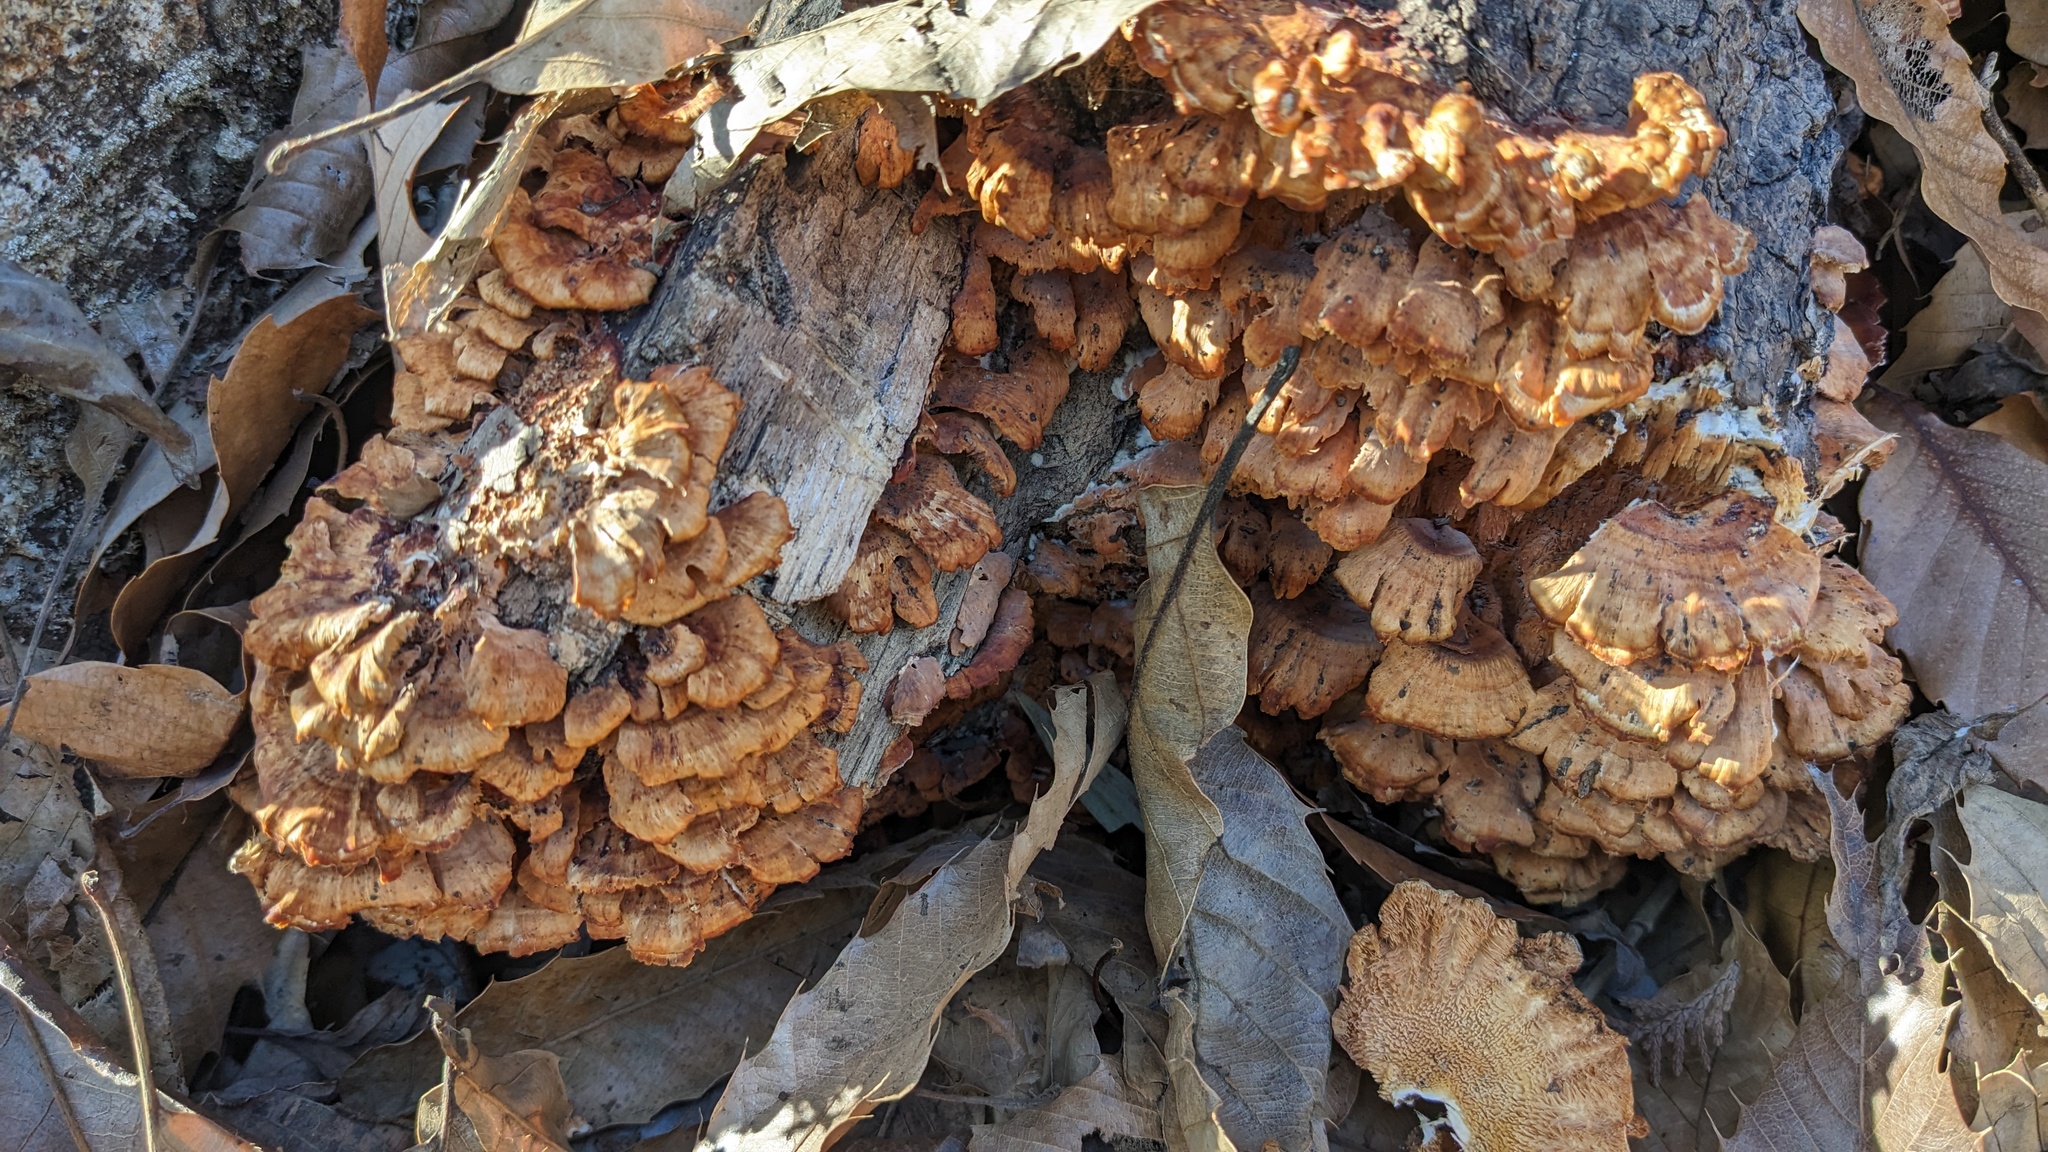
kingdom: Fungi
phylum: Basidiomycota
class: Agaricomycetes
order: Polyporales
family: Irpicaceae
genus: Irpex
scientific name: Irpex consors
